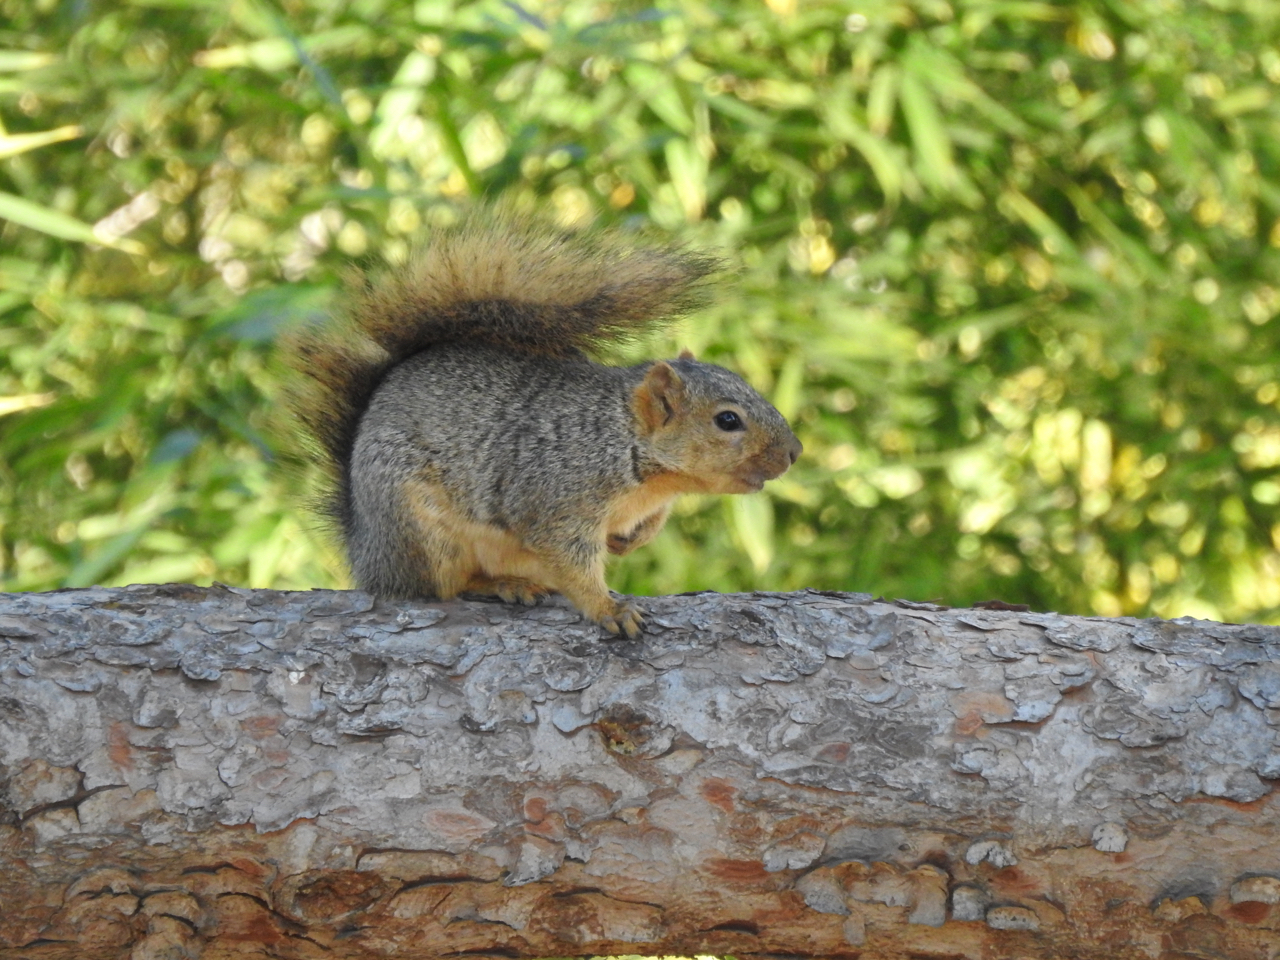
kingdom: Animalia
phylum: Chordata
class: Mammalia
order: Rodentia
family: Sciuridae
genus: Sciurus
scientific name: Sciurus niger
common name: Fox squirrel
